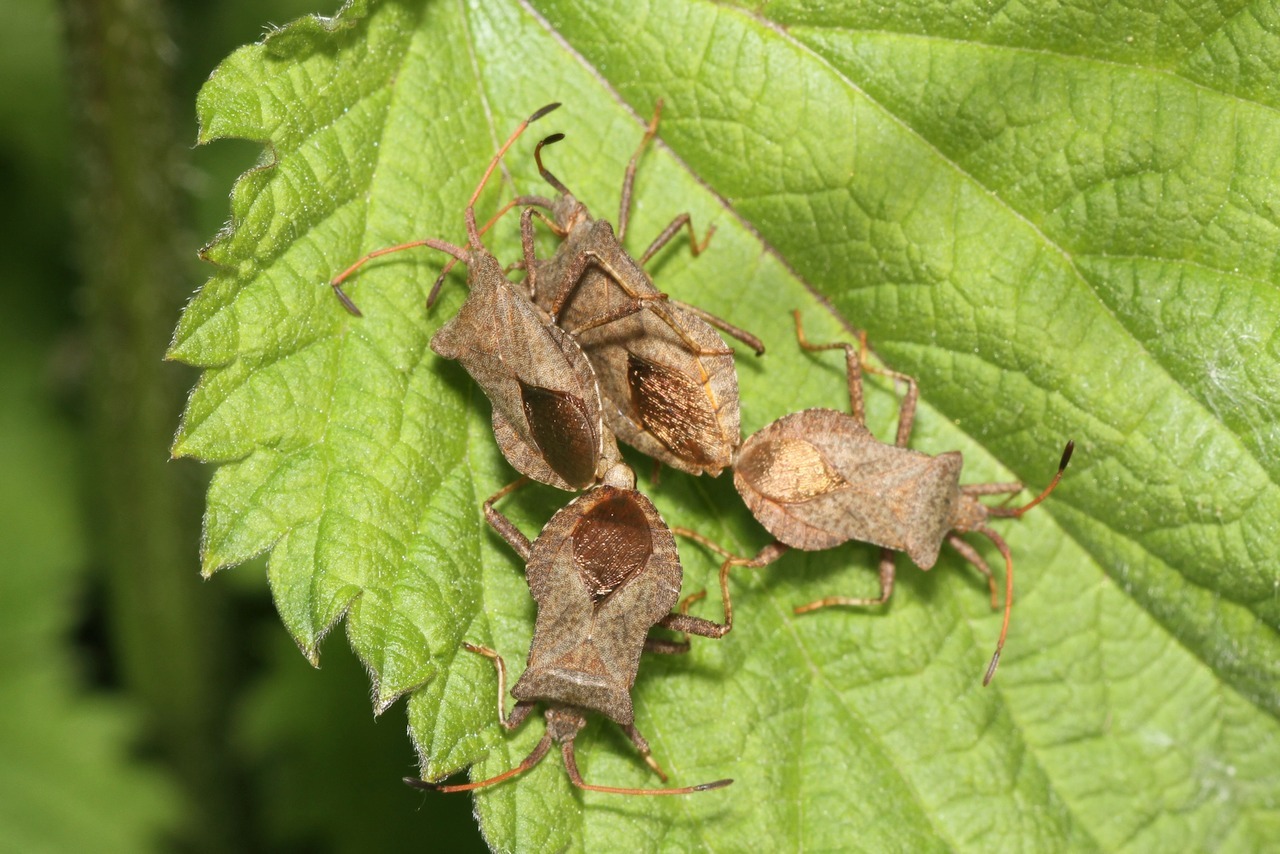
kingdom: Animalia
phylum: Arthropoda
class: Insecta
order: Hemiptera
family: Coreidae
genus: Coreus
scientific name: Coreus marginatus
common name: Dock bug
